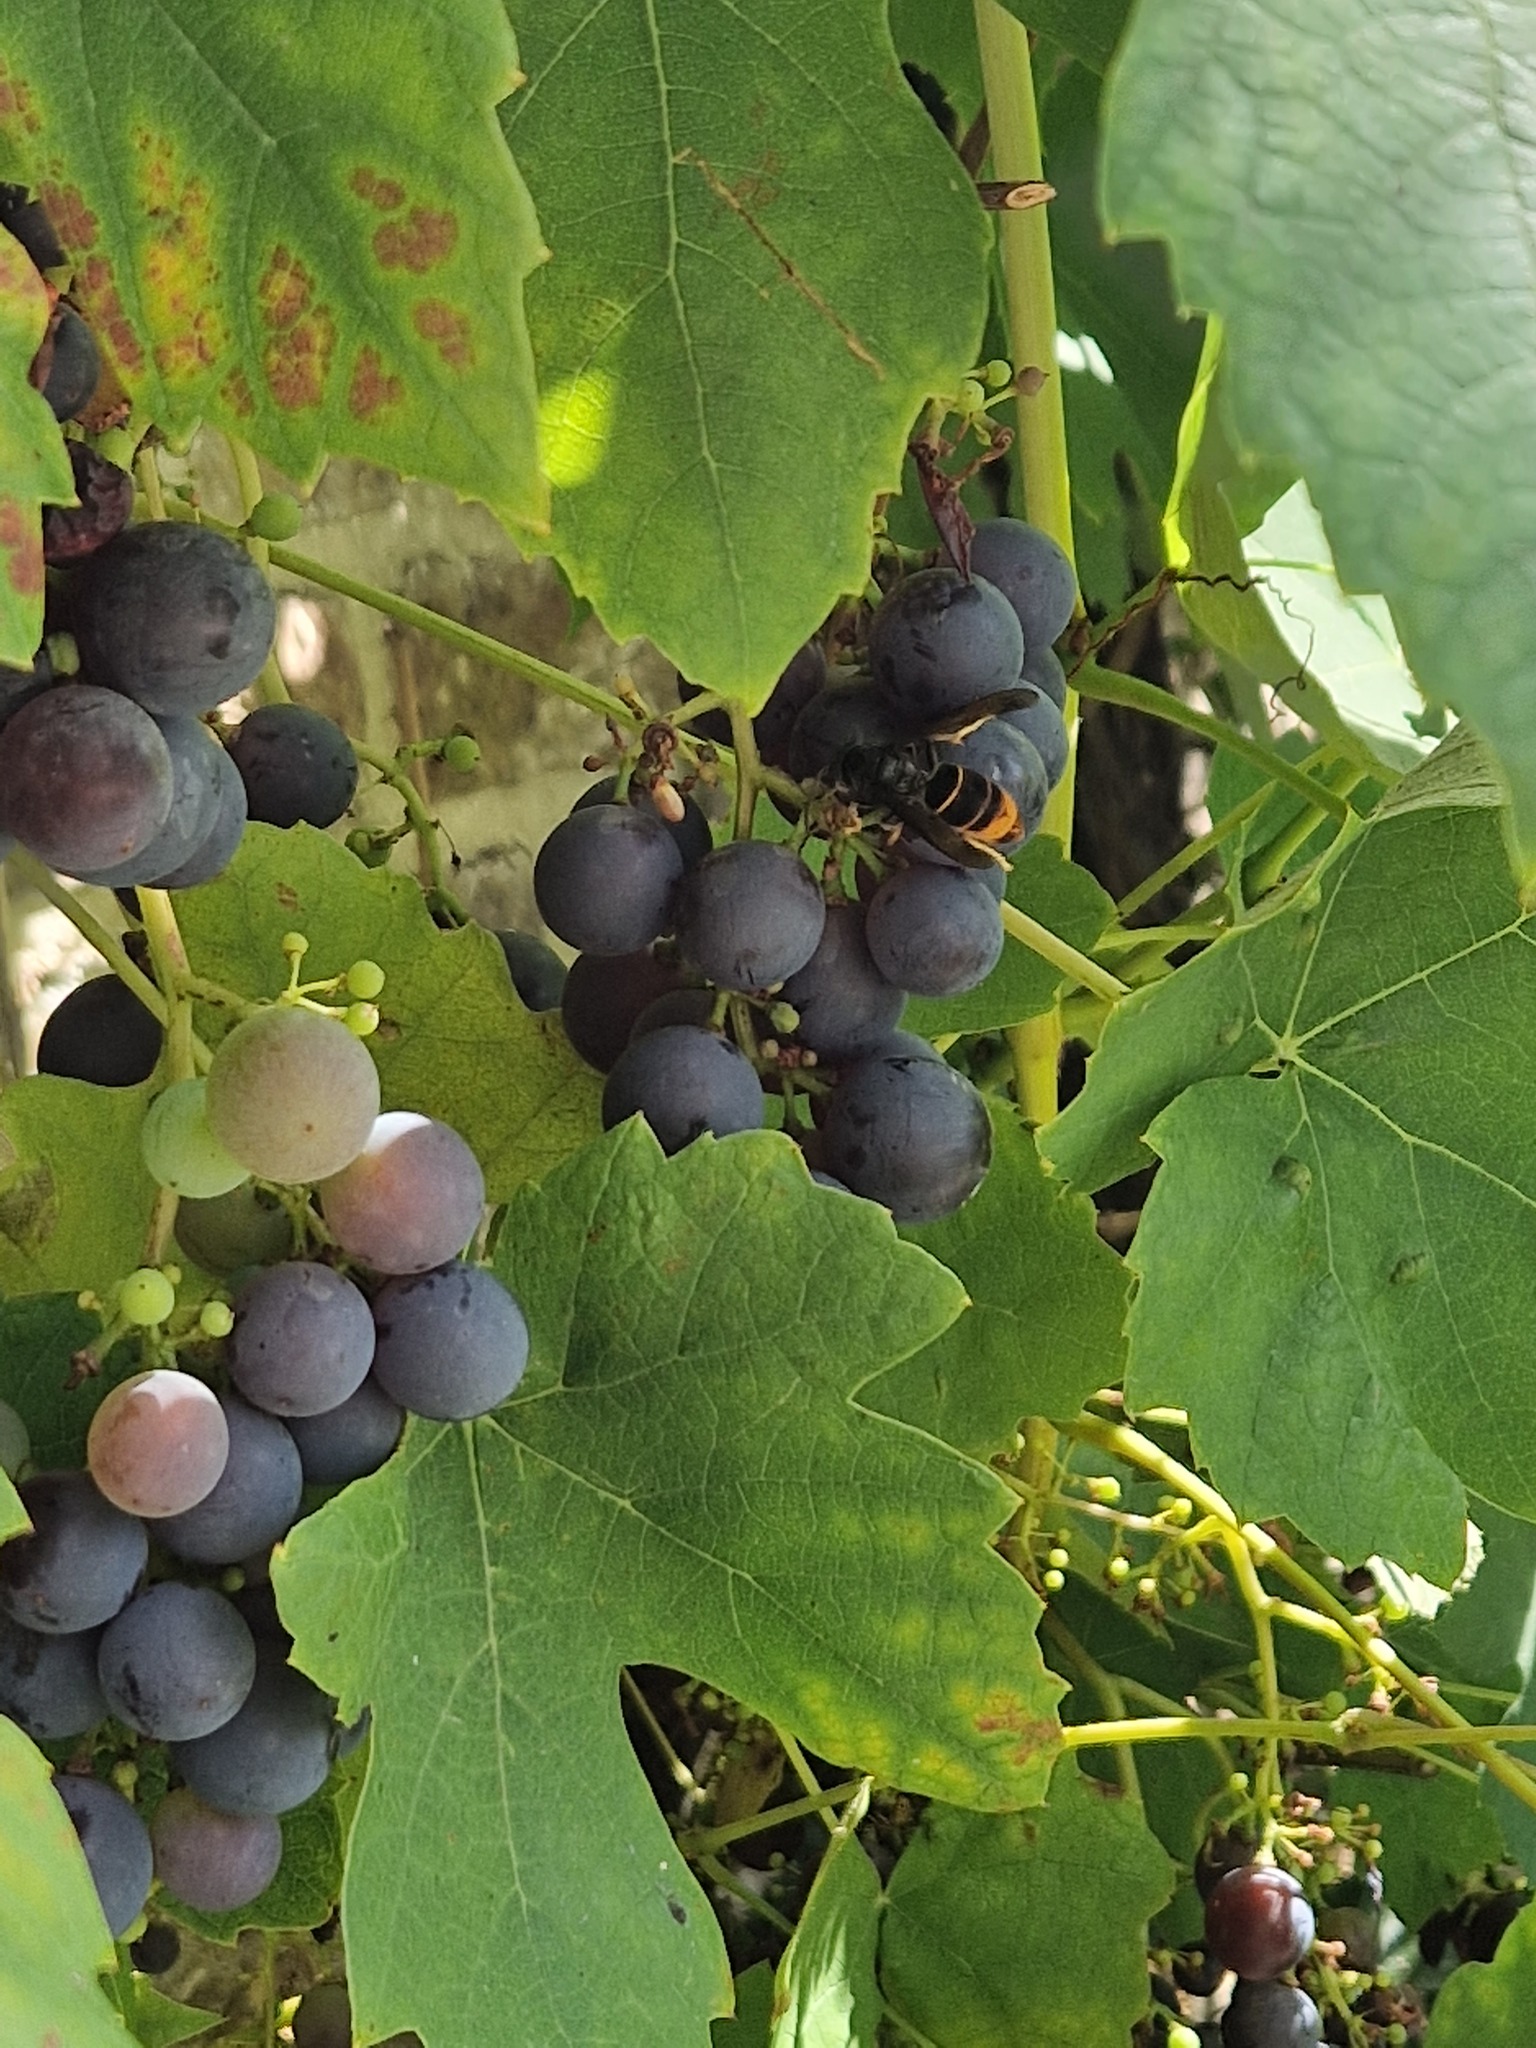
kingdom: Animalia
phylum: Arthropoda
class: Insecta
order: Hymenoptera
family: Vespidae
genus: Vespa
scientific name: Vespa velutina
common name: Asian hornet
